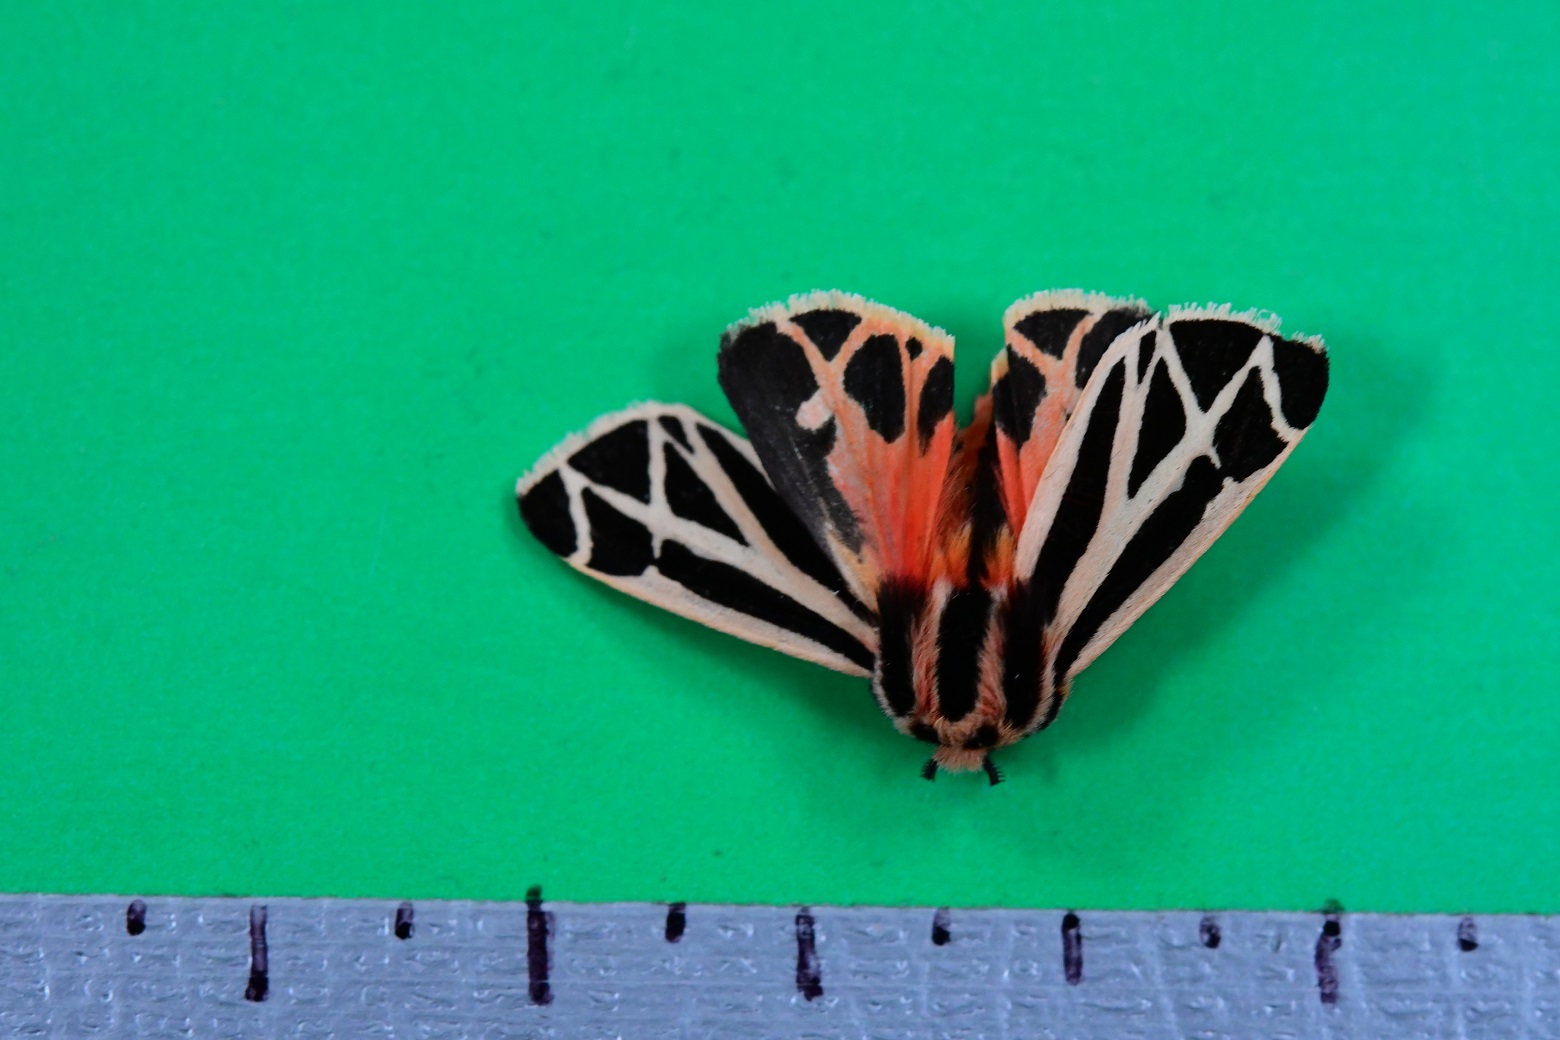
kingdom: Animalia
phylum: Arthropoda
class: Insecta
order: Lepidoptera
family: Erebidae
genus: Apantesis
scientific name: Apantesis phalerata
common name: Harnessed tiger moth
